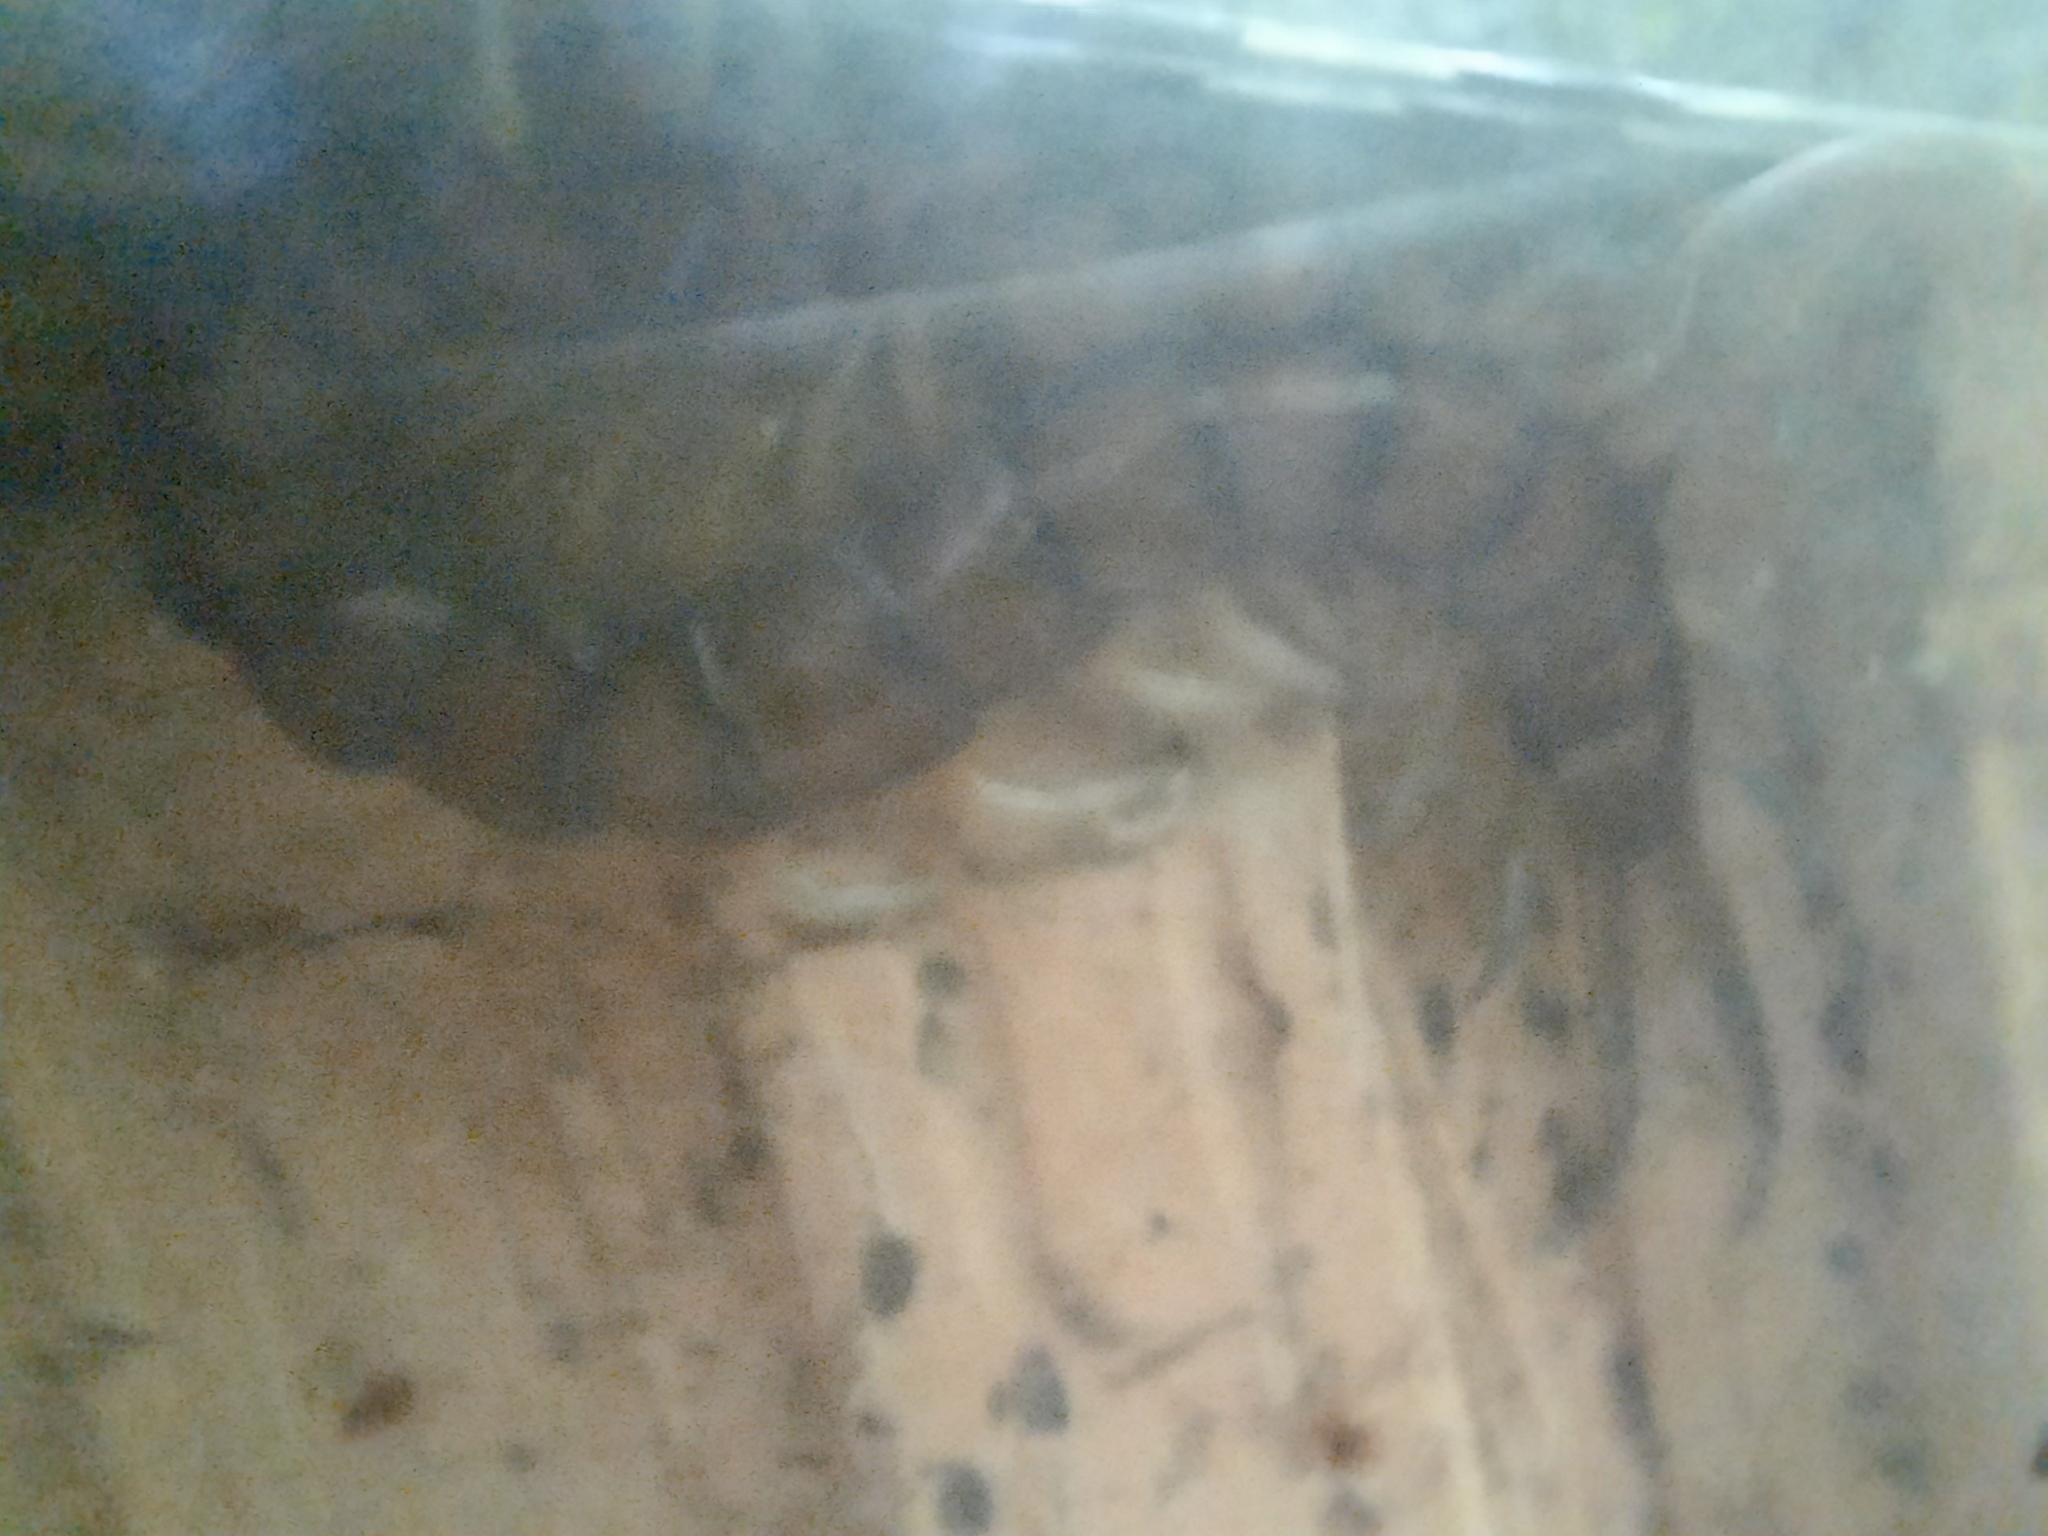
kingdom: Animalia
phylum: Arthropoda
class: Chilopoda
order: Scolopendromorpha
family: Scolopendridae
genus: Cormocephalus
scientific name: Cormocephalus rubriceps
